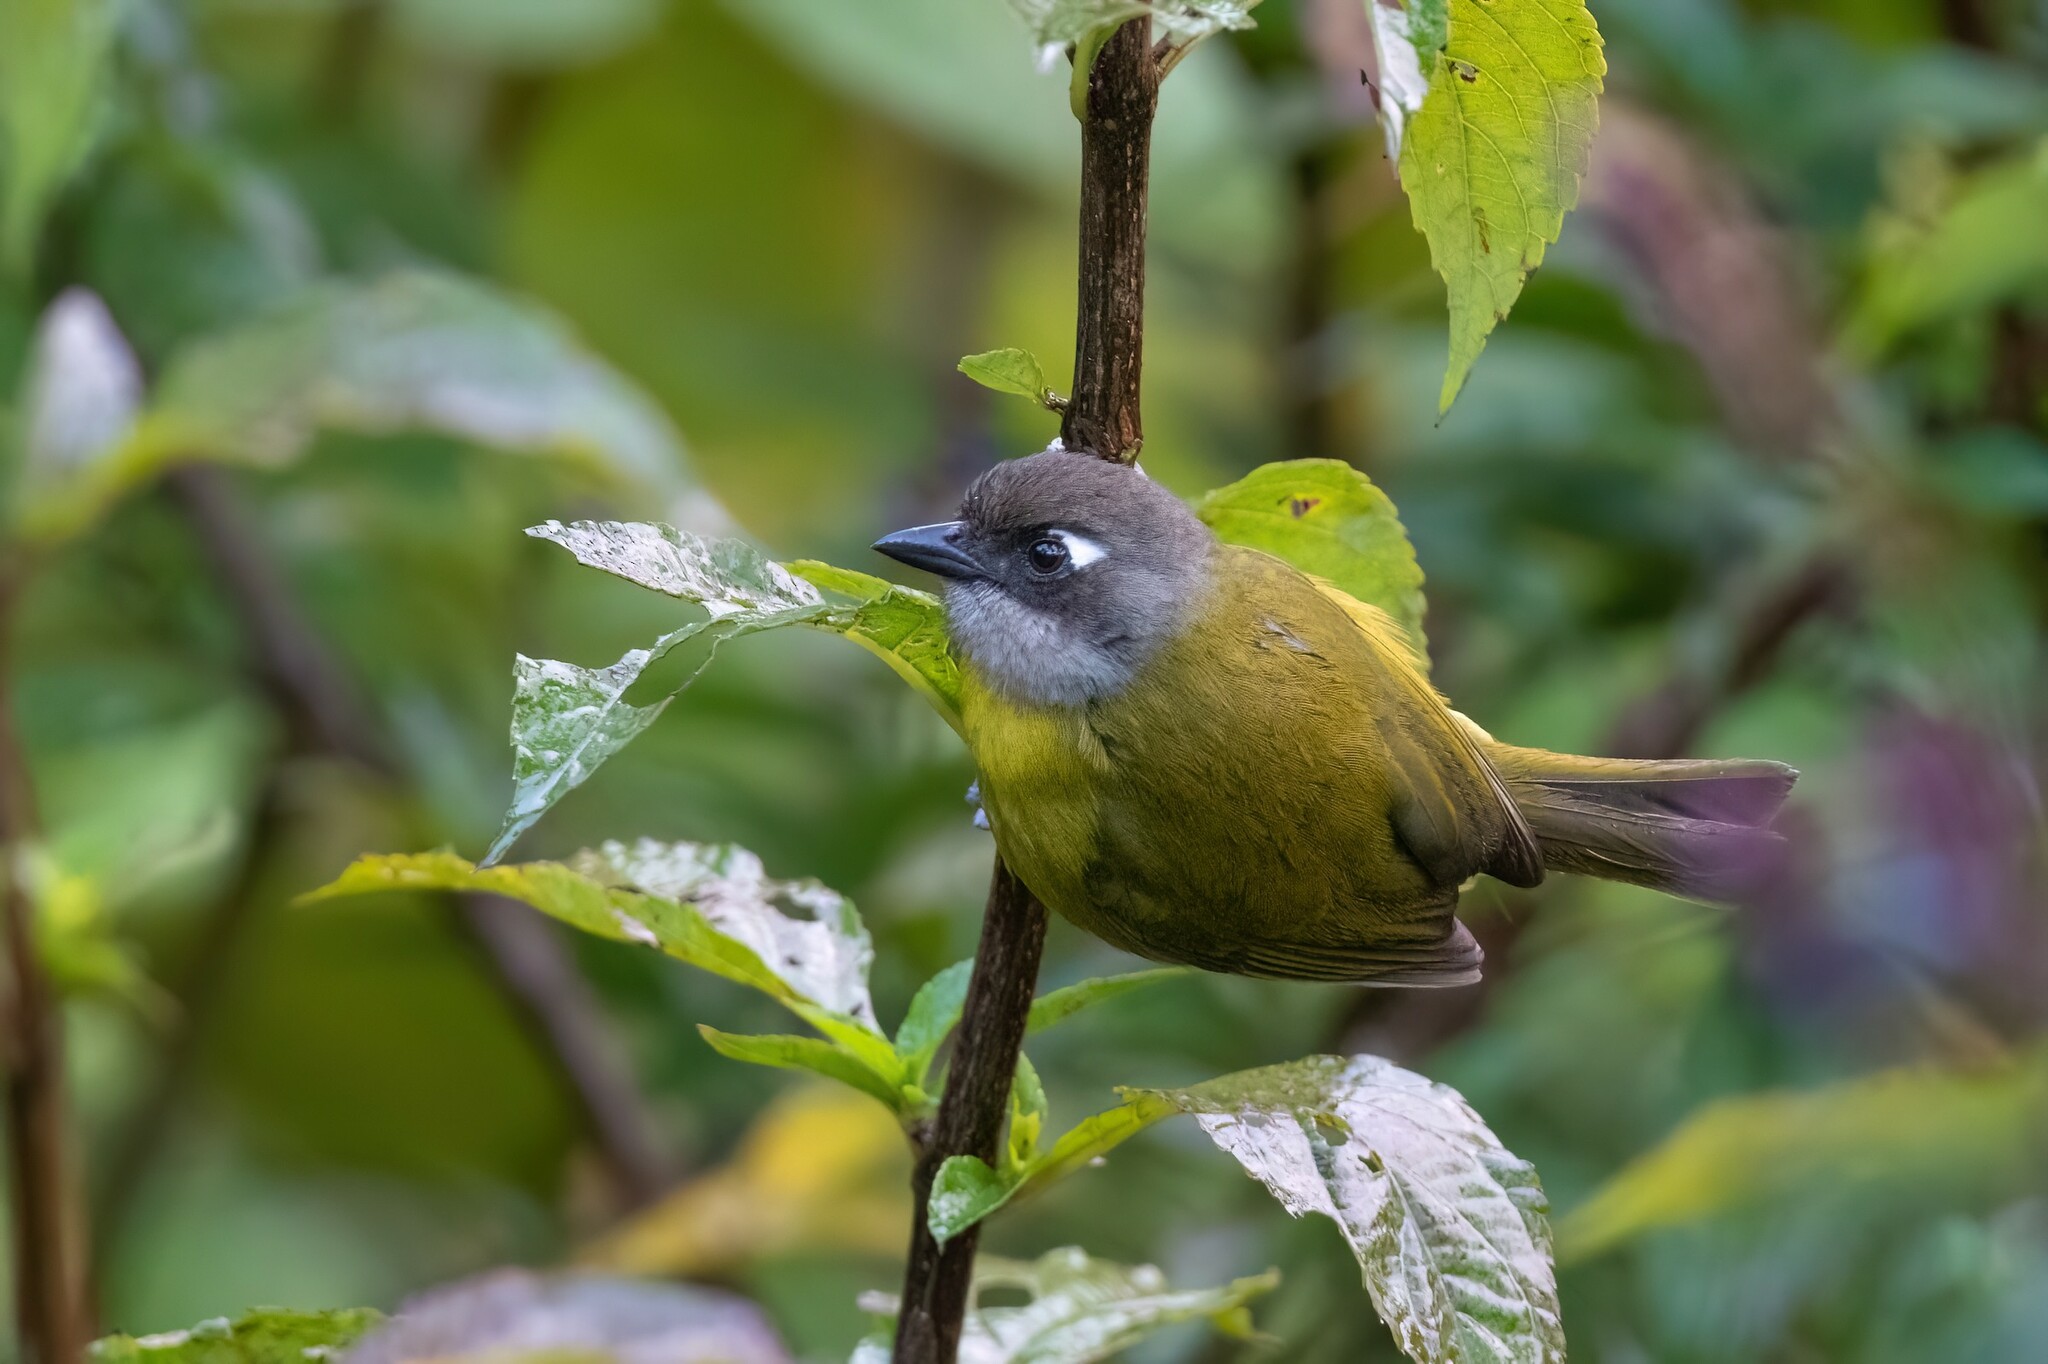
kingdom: Animalia
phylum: Chordata
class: Aves
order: Passeriformes
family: Passerellidae
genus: Chlorospingus
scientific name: Chlorospingus flavopectus
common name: Common chlorospingus
